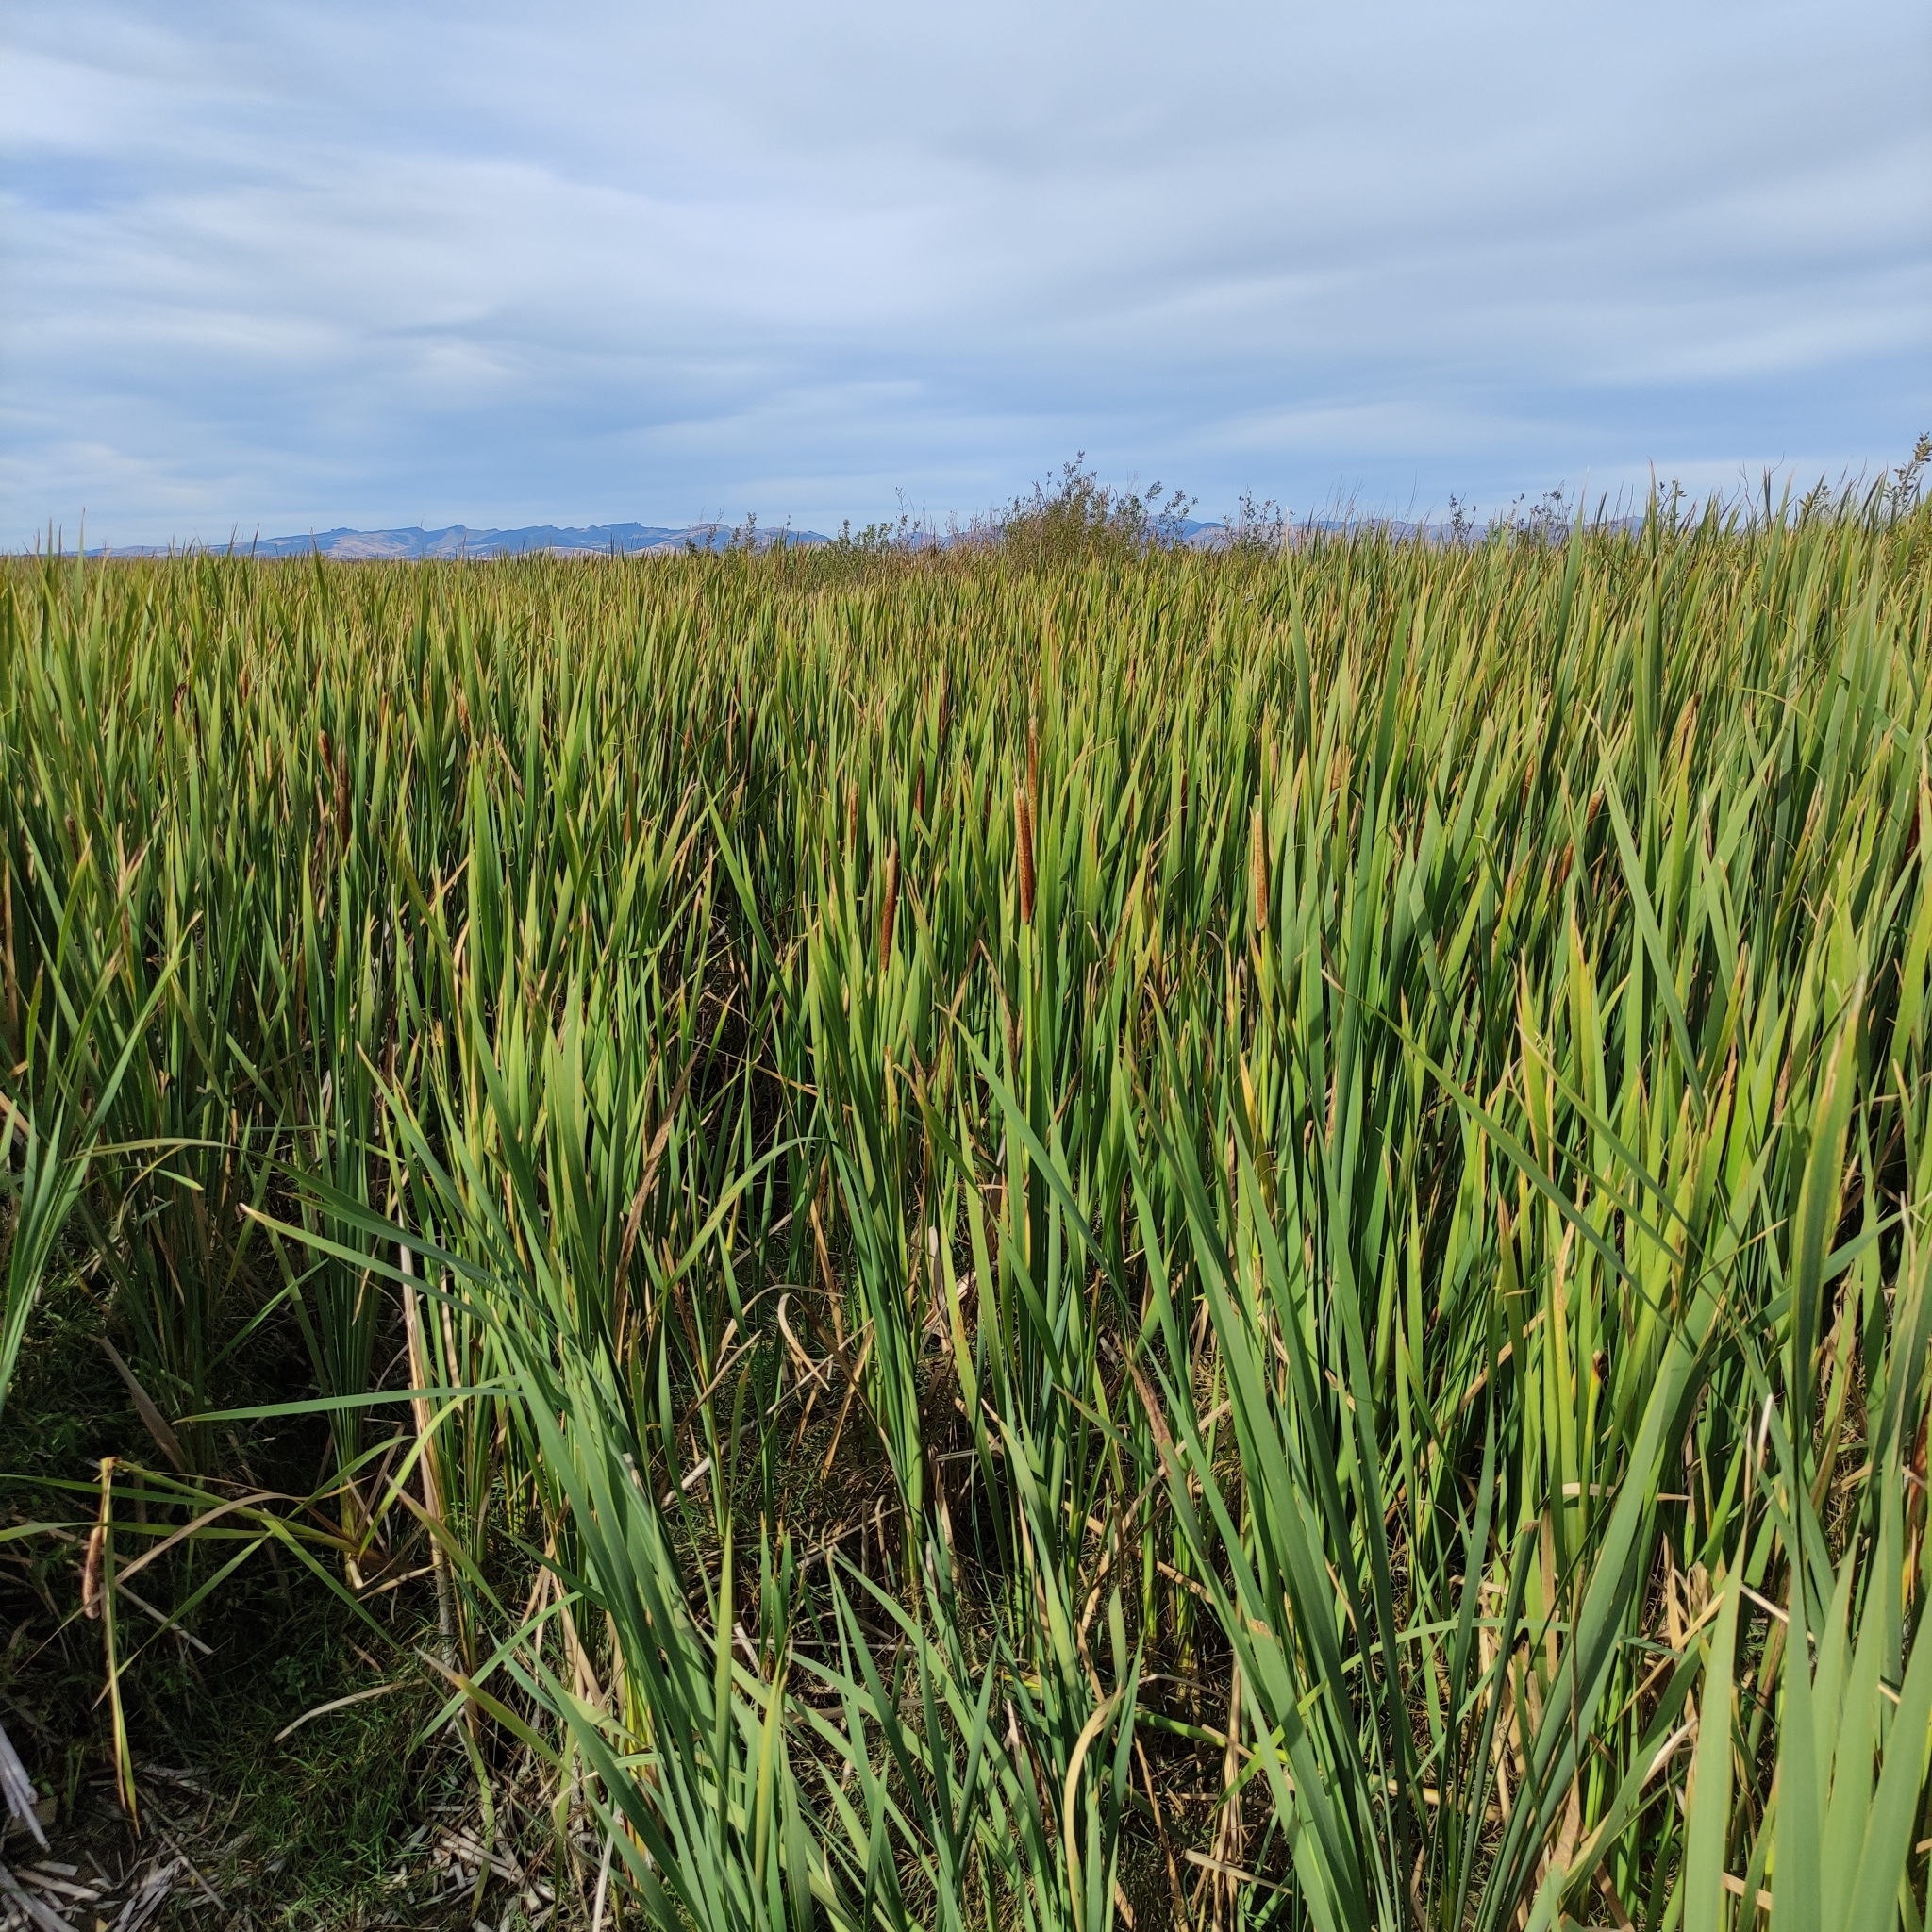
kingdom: Plantae
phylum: Tracheophyta
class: Liliopsida
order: Poales
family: Typhaceae
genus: Typha
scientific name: Typha orientalis
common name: Bullrush
